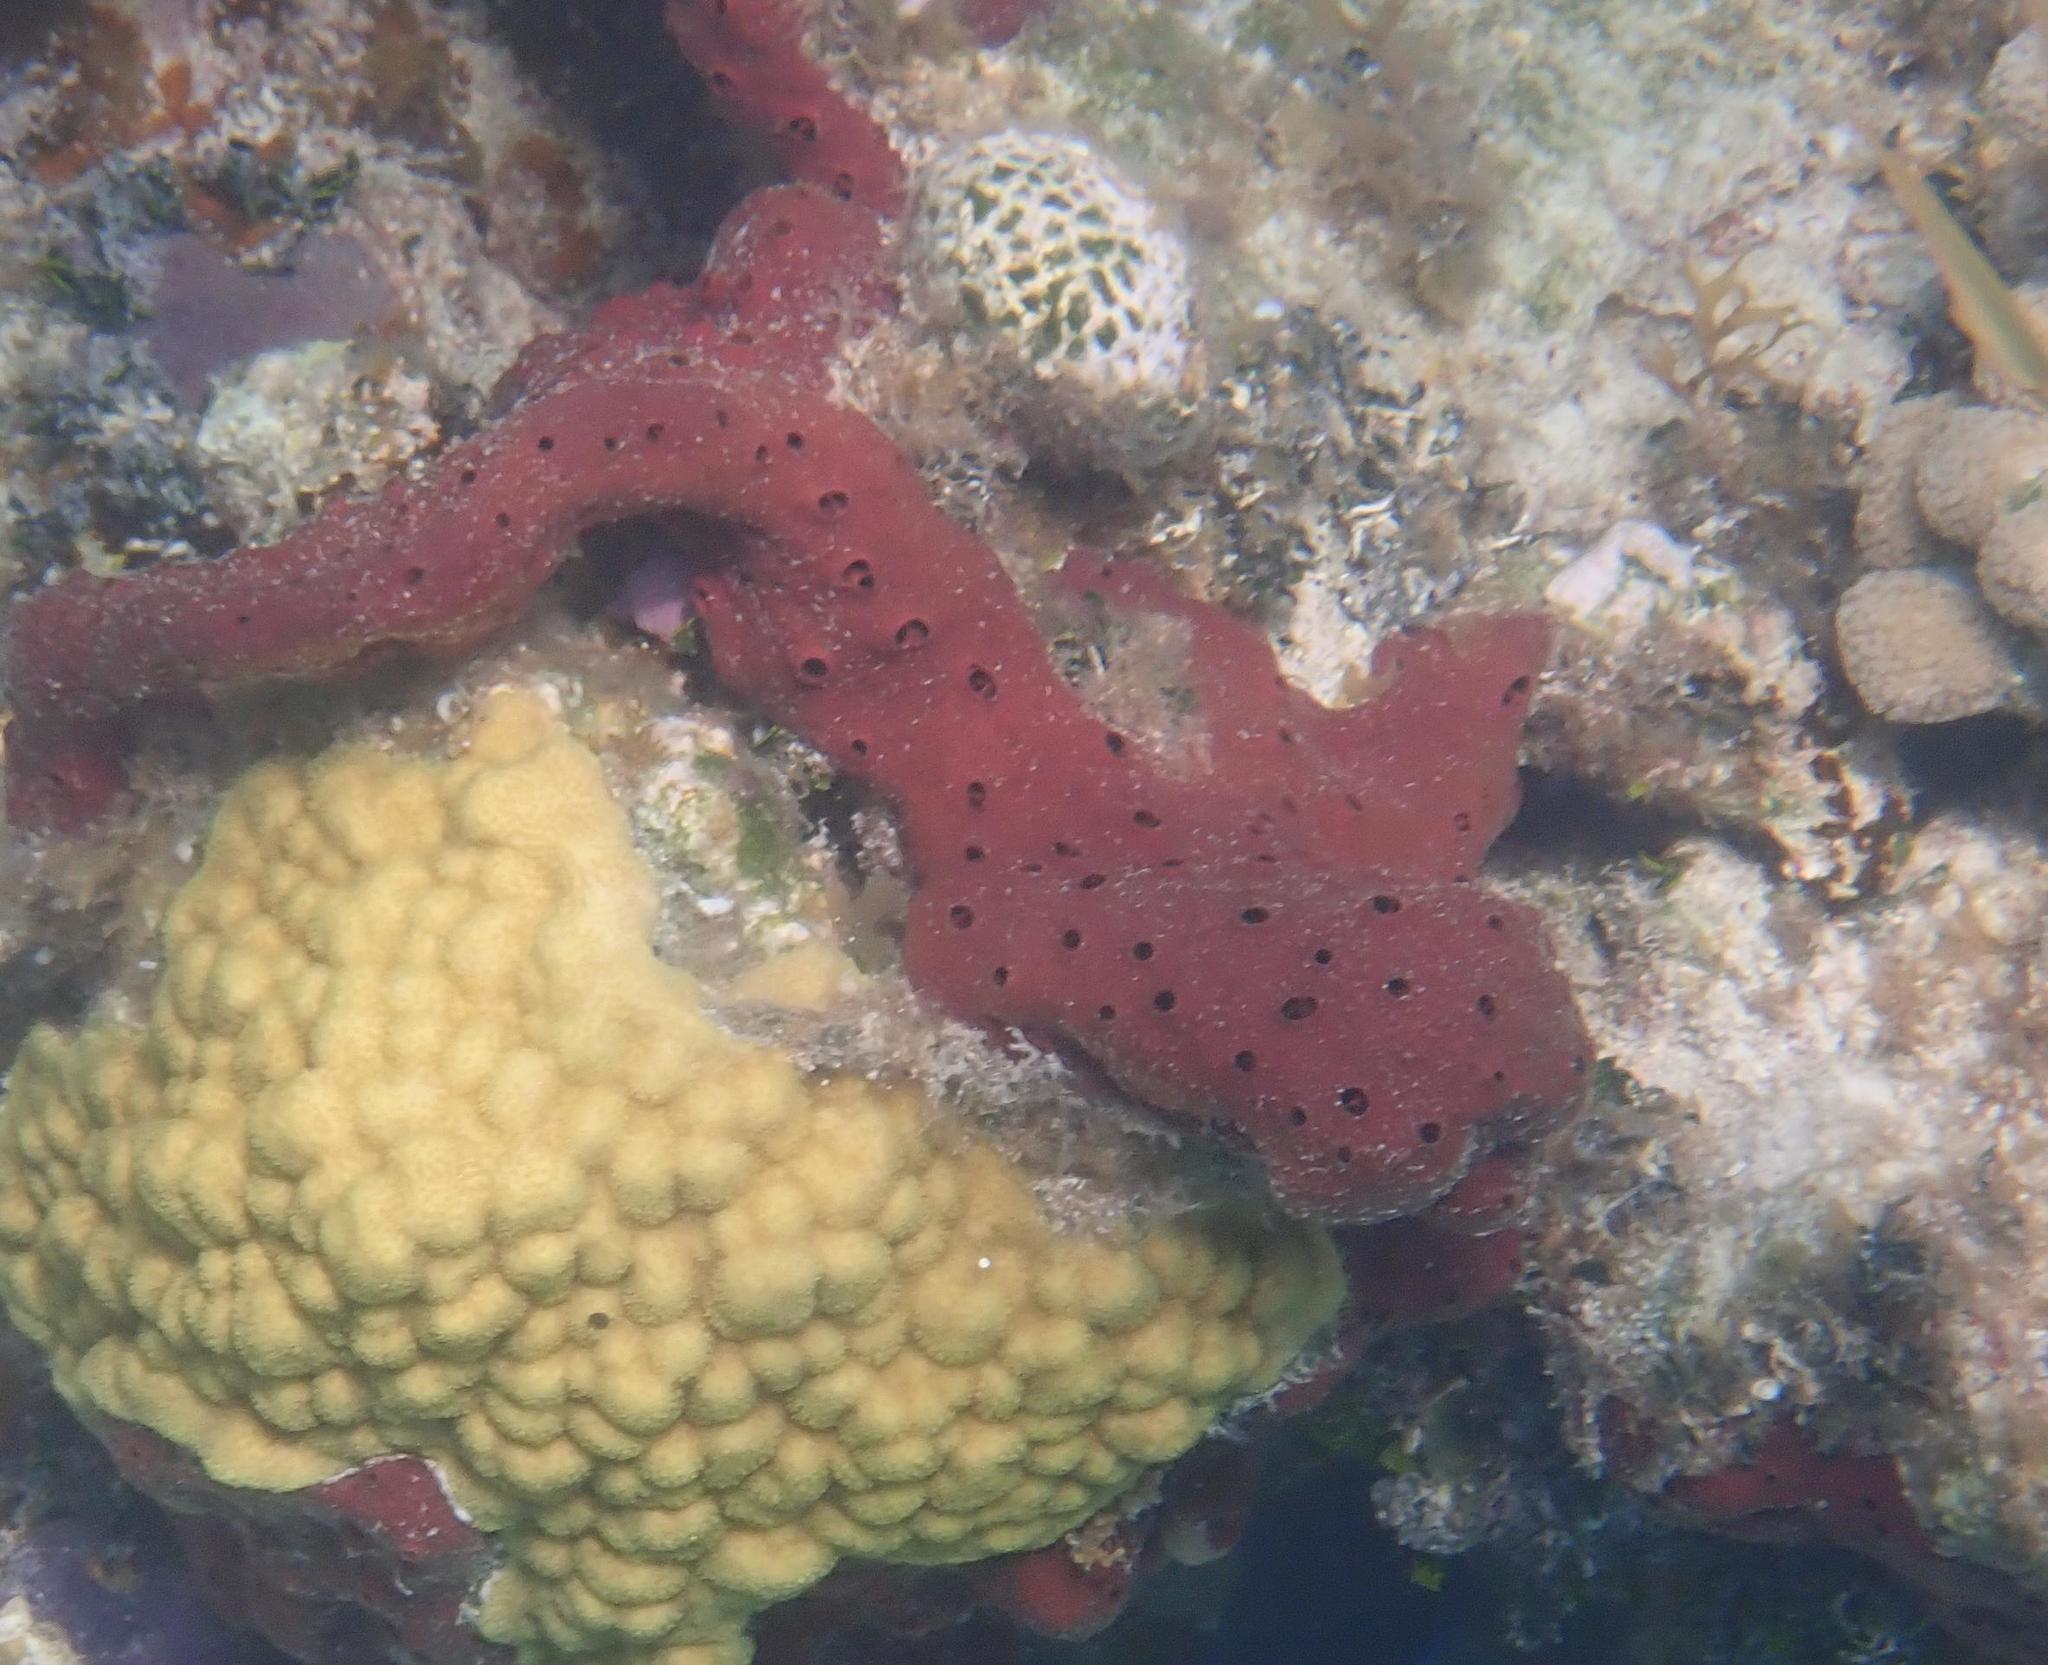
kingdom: Animalia
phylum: Porifera
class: Demospongiae
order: Haplosclerida
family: Niphatidae
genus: Amphimedon
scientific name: Amphimedon compressa
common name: Red sponge
